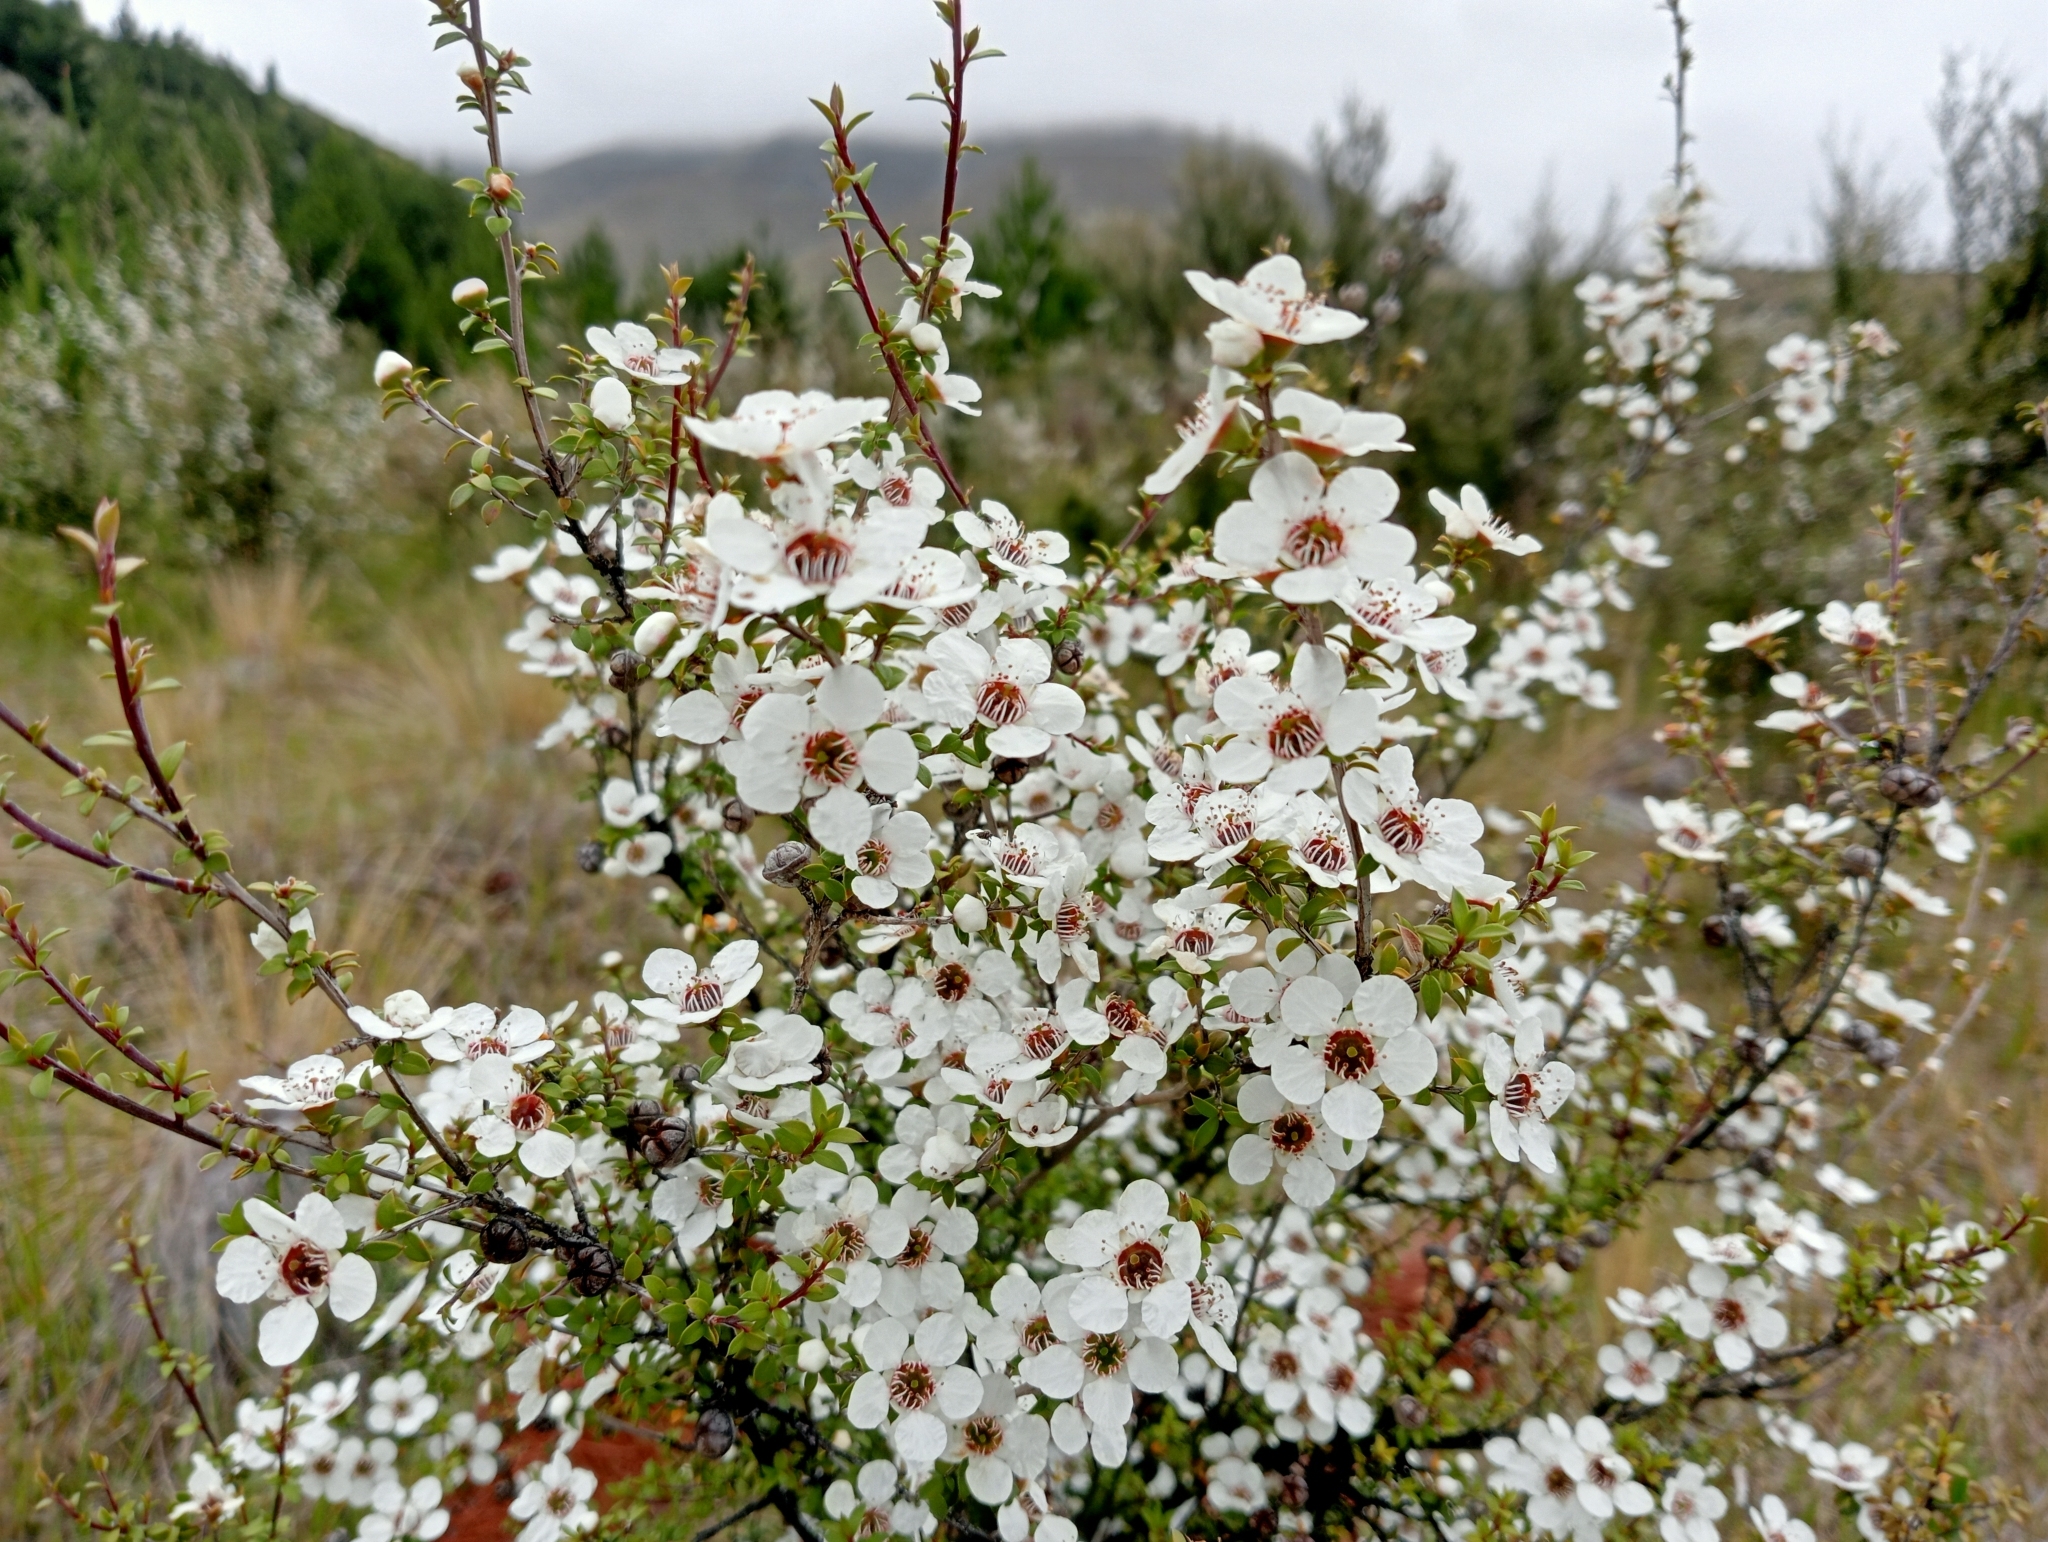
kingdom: Plantae
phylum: Tracheophyta
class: Magnoliopsida
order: Myrtales
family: Myrtaceae
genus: Leptospermum
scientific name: Leptospermum scoparium
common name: Broom tea-tree
